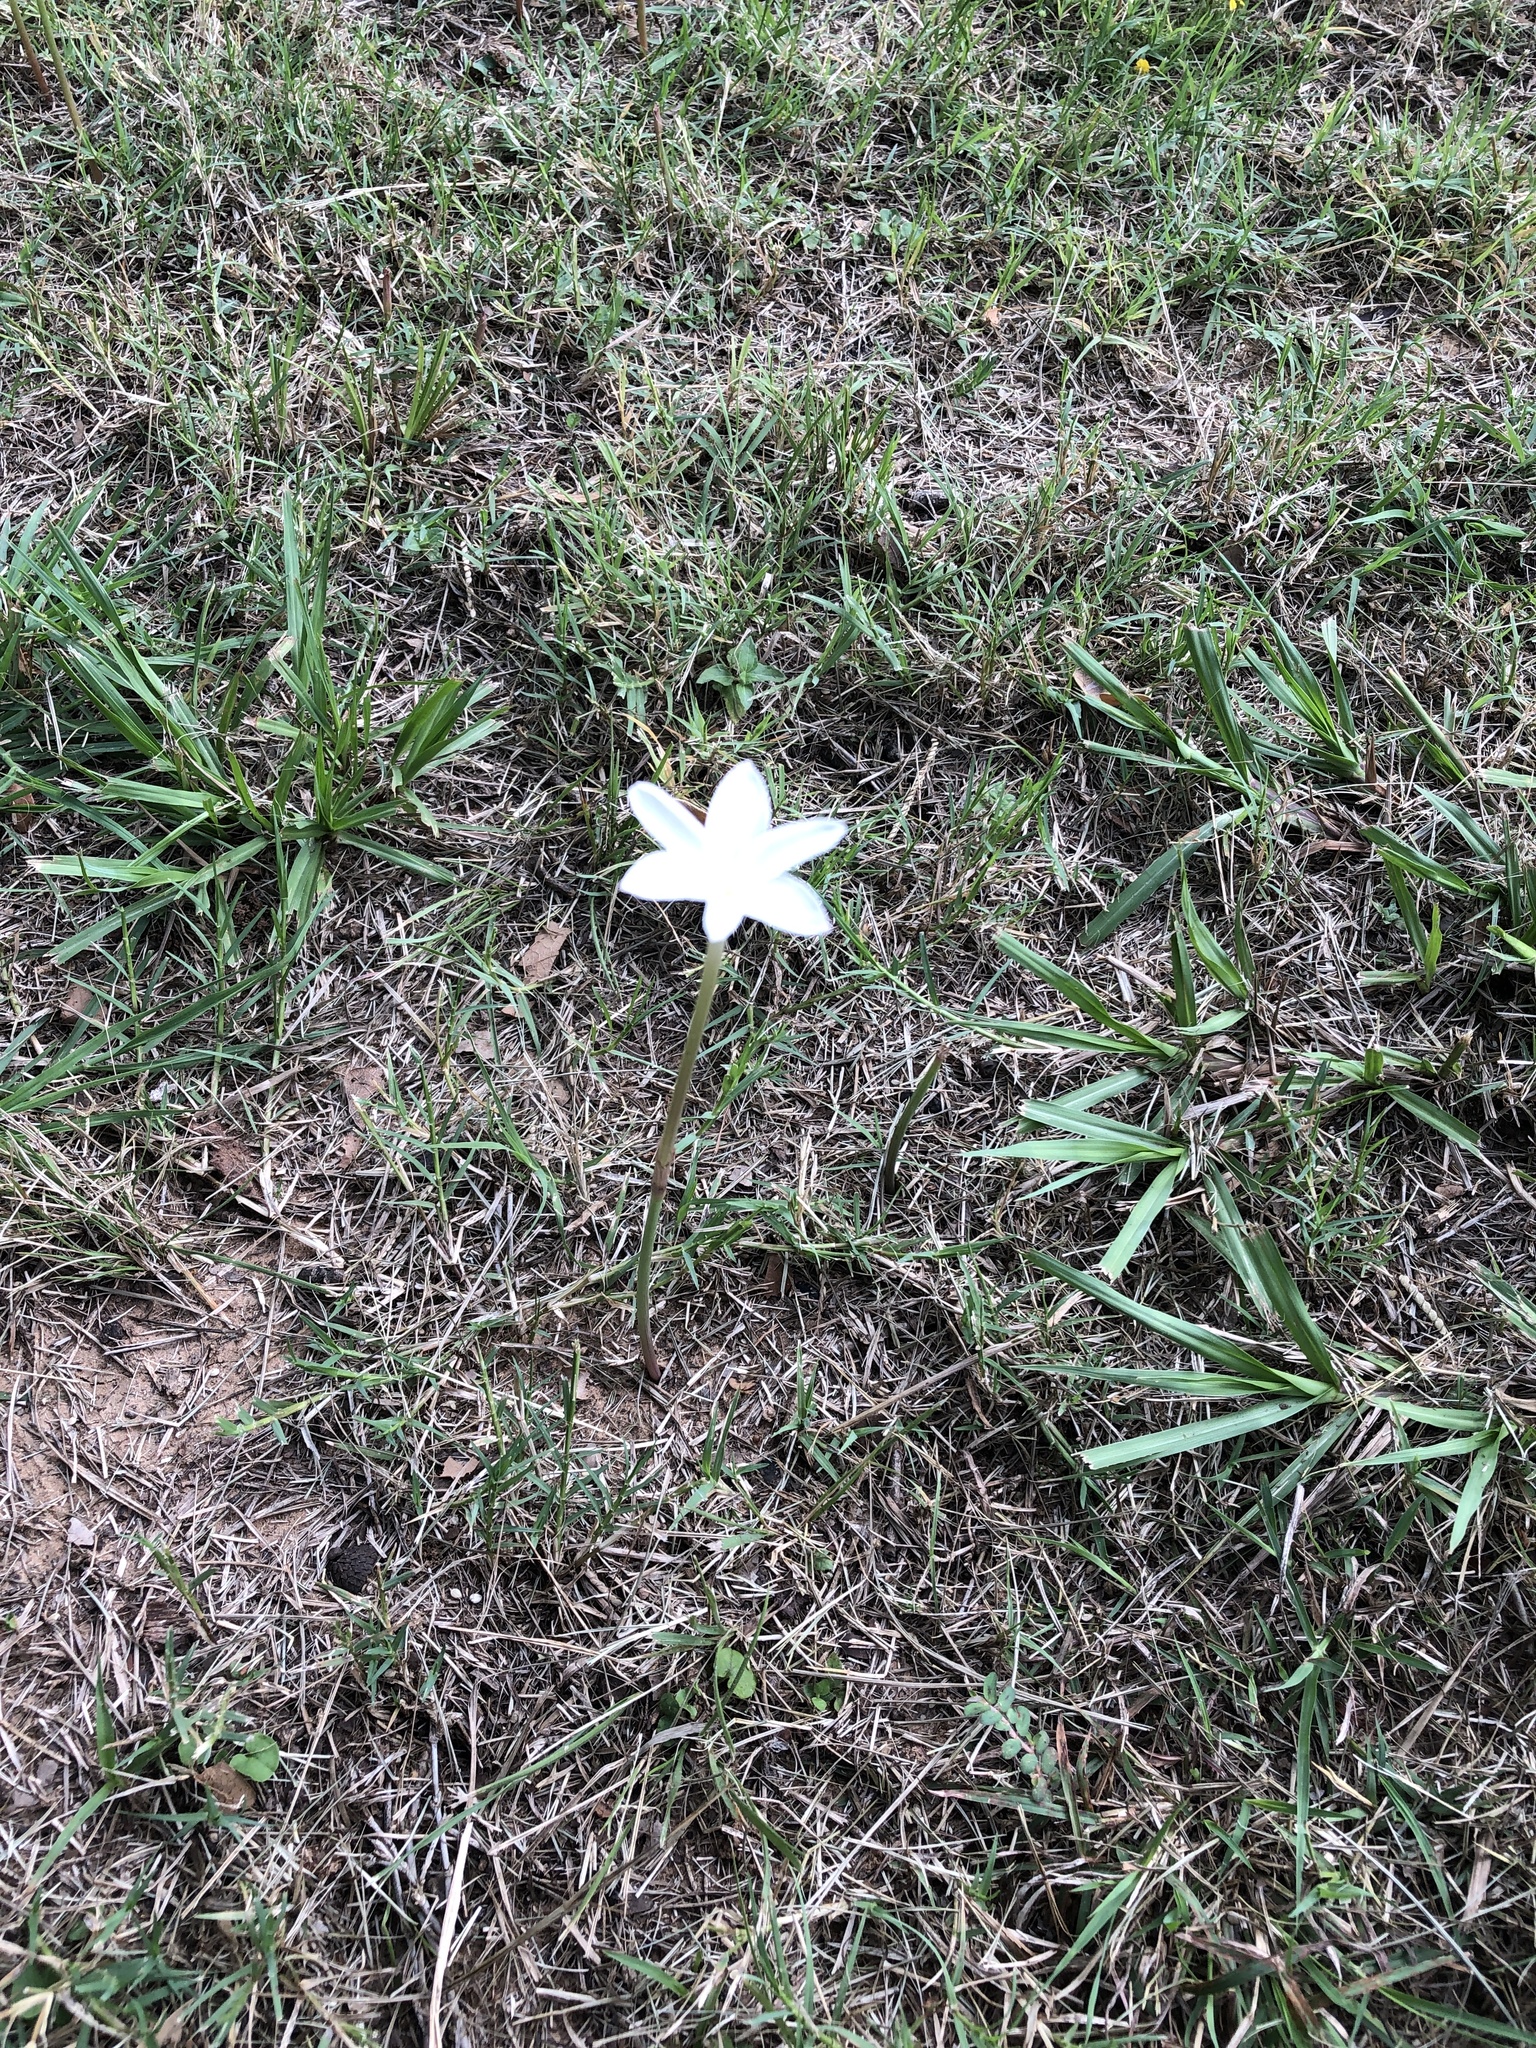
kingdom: Plantae
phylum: Tracheophyta
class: Liliopsida
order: Asparagales
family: Amaryllidaceae
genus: Zephyranthes
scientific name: Zephyranthes chlorosolen
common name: Evening rain-lily
